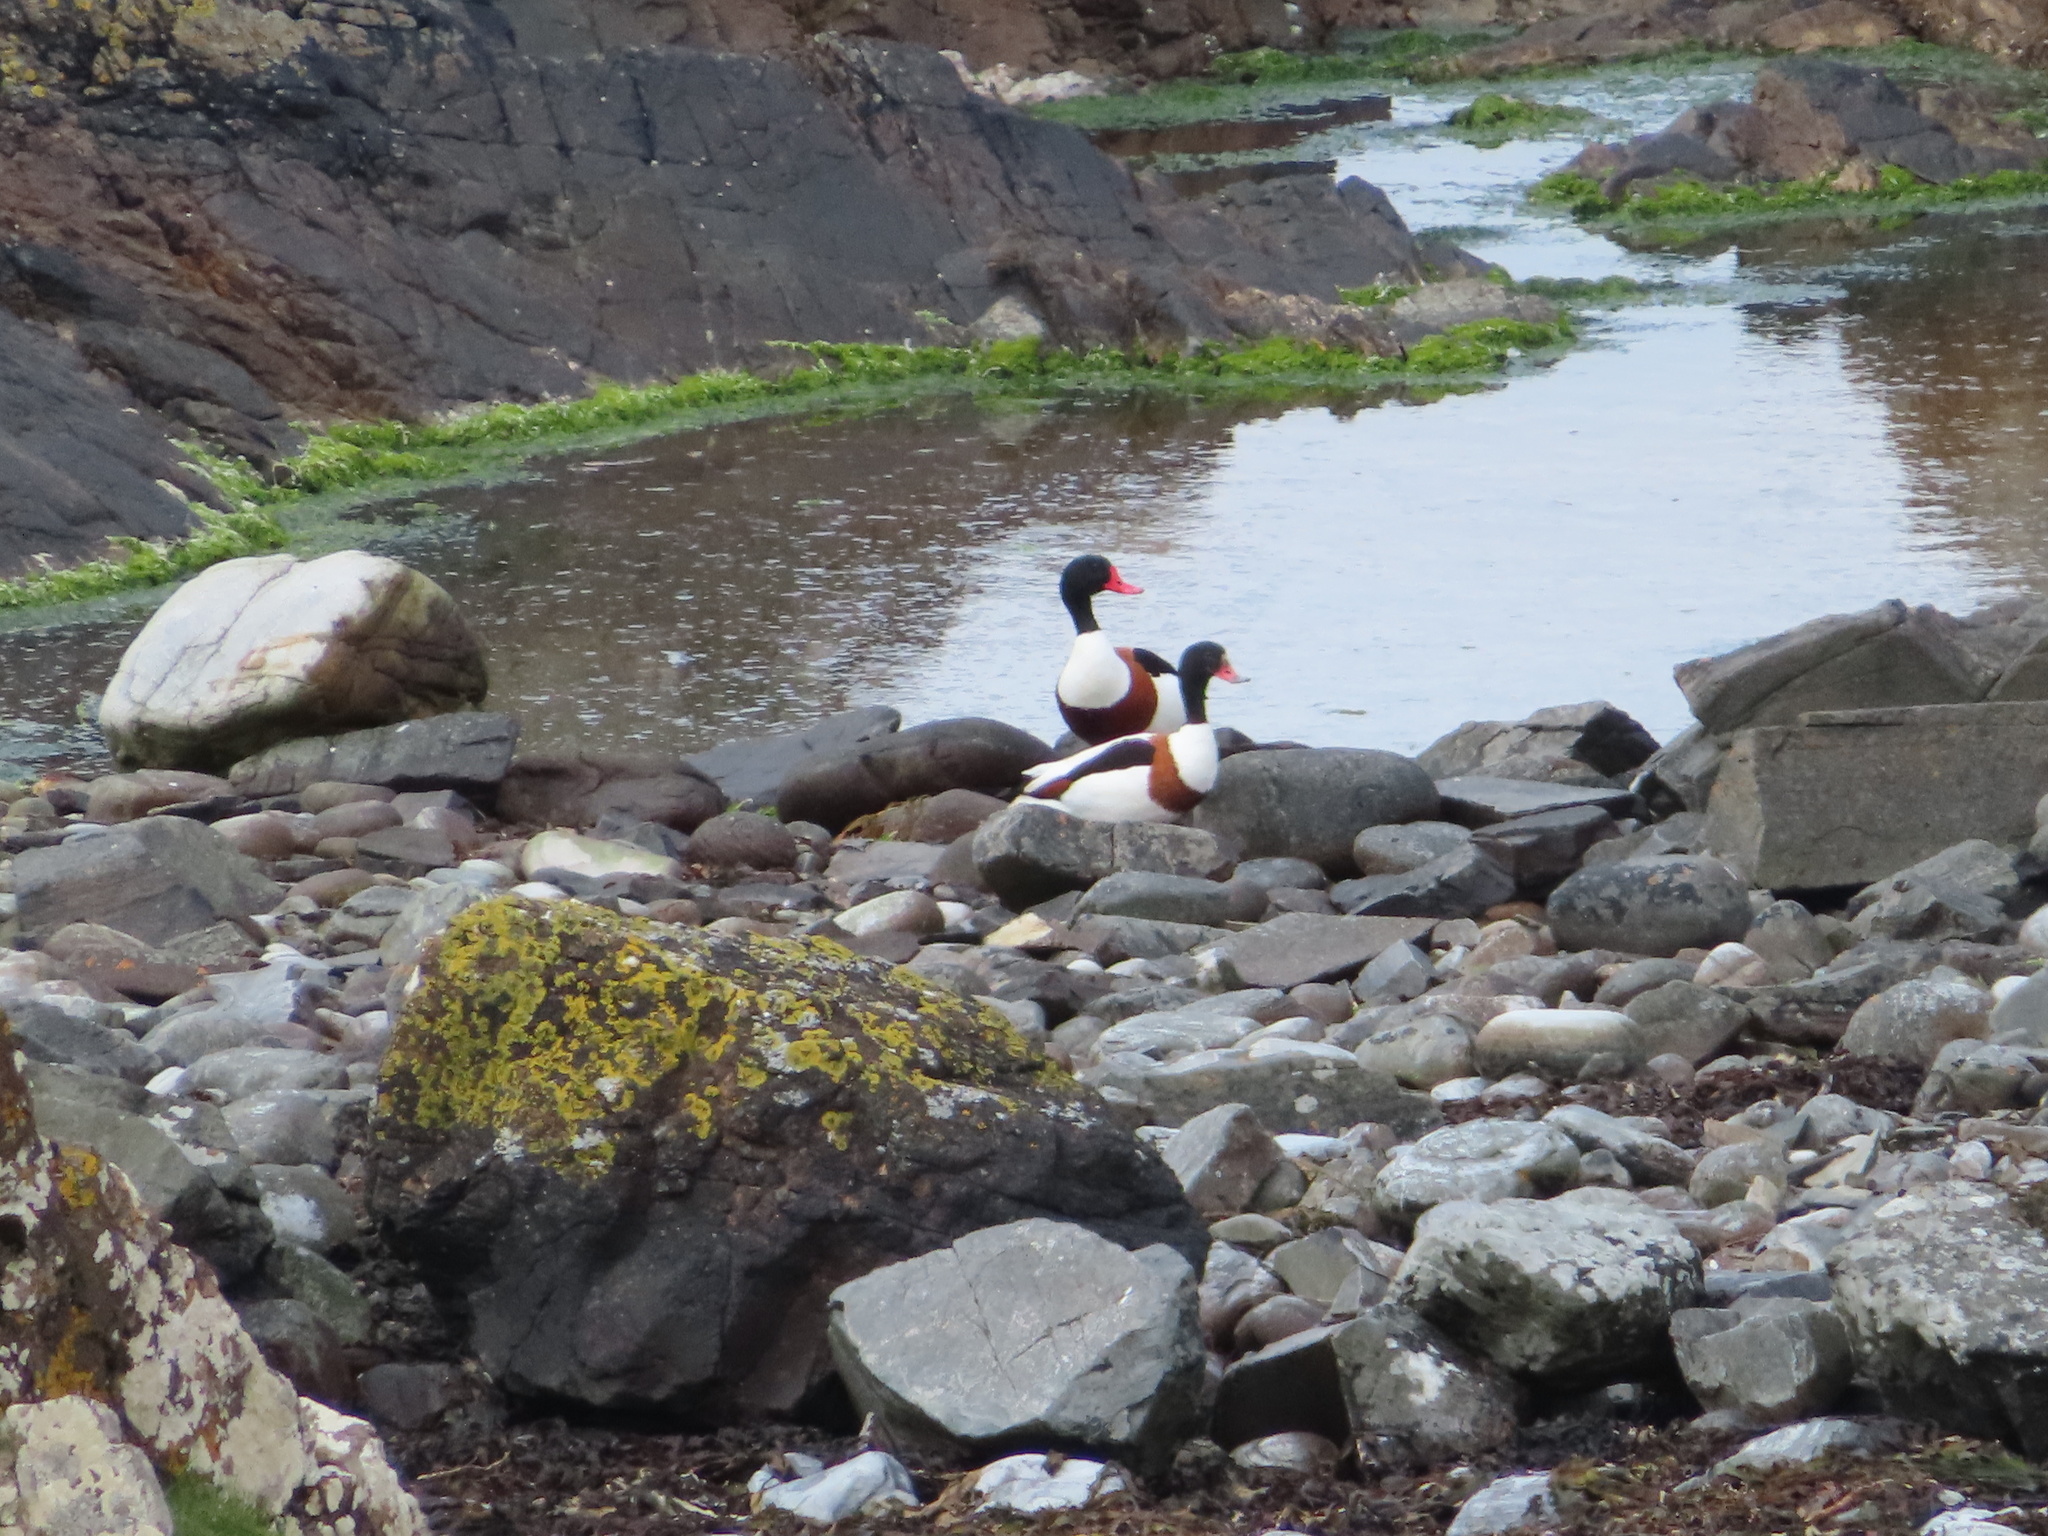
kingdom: Animalia
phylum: Chordata
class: Aves
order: Anseriformes
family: Anatidae
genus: Tadorna
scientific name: Tadorna tadorna
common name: Common shelduck
